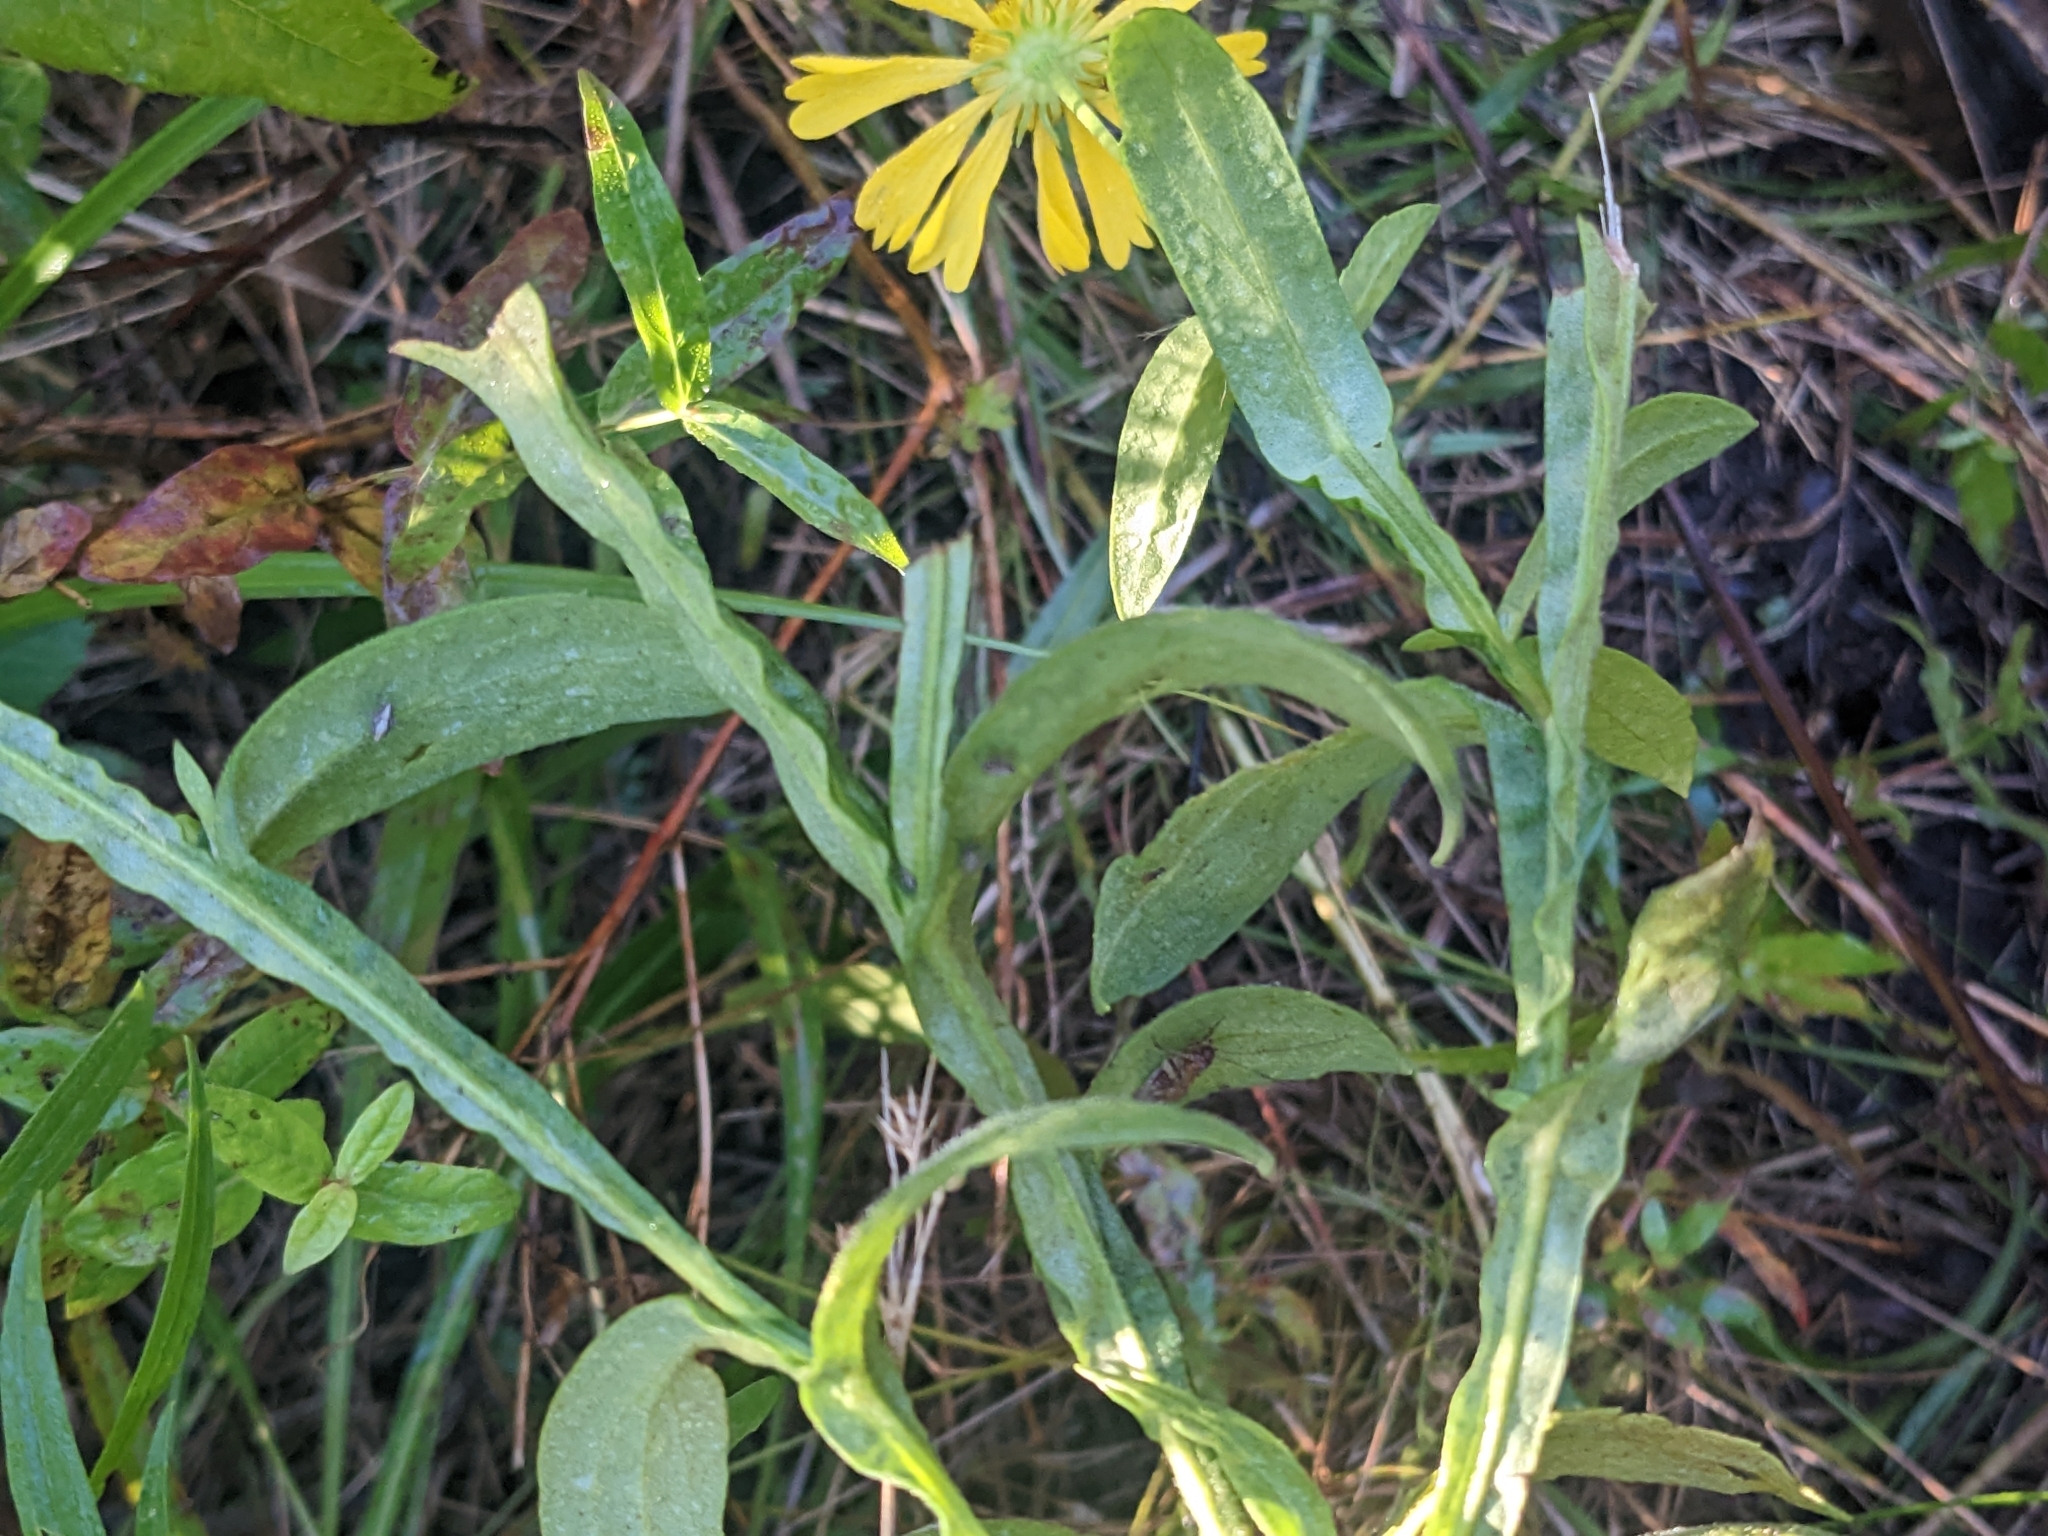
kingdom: Plantae
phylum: Tracheophyta
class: Magnoliopsida
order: Asterales
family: Asteraceae
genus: Helenium
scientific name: Helenium autumnale
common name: Sneezeweed
